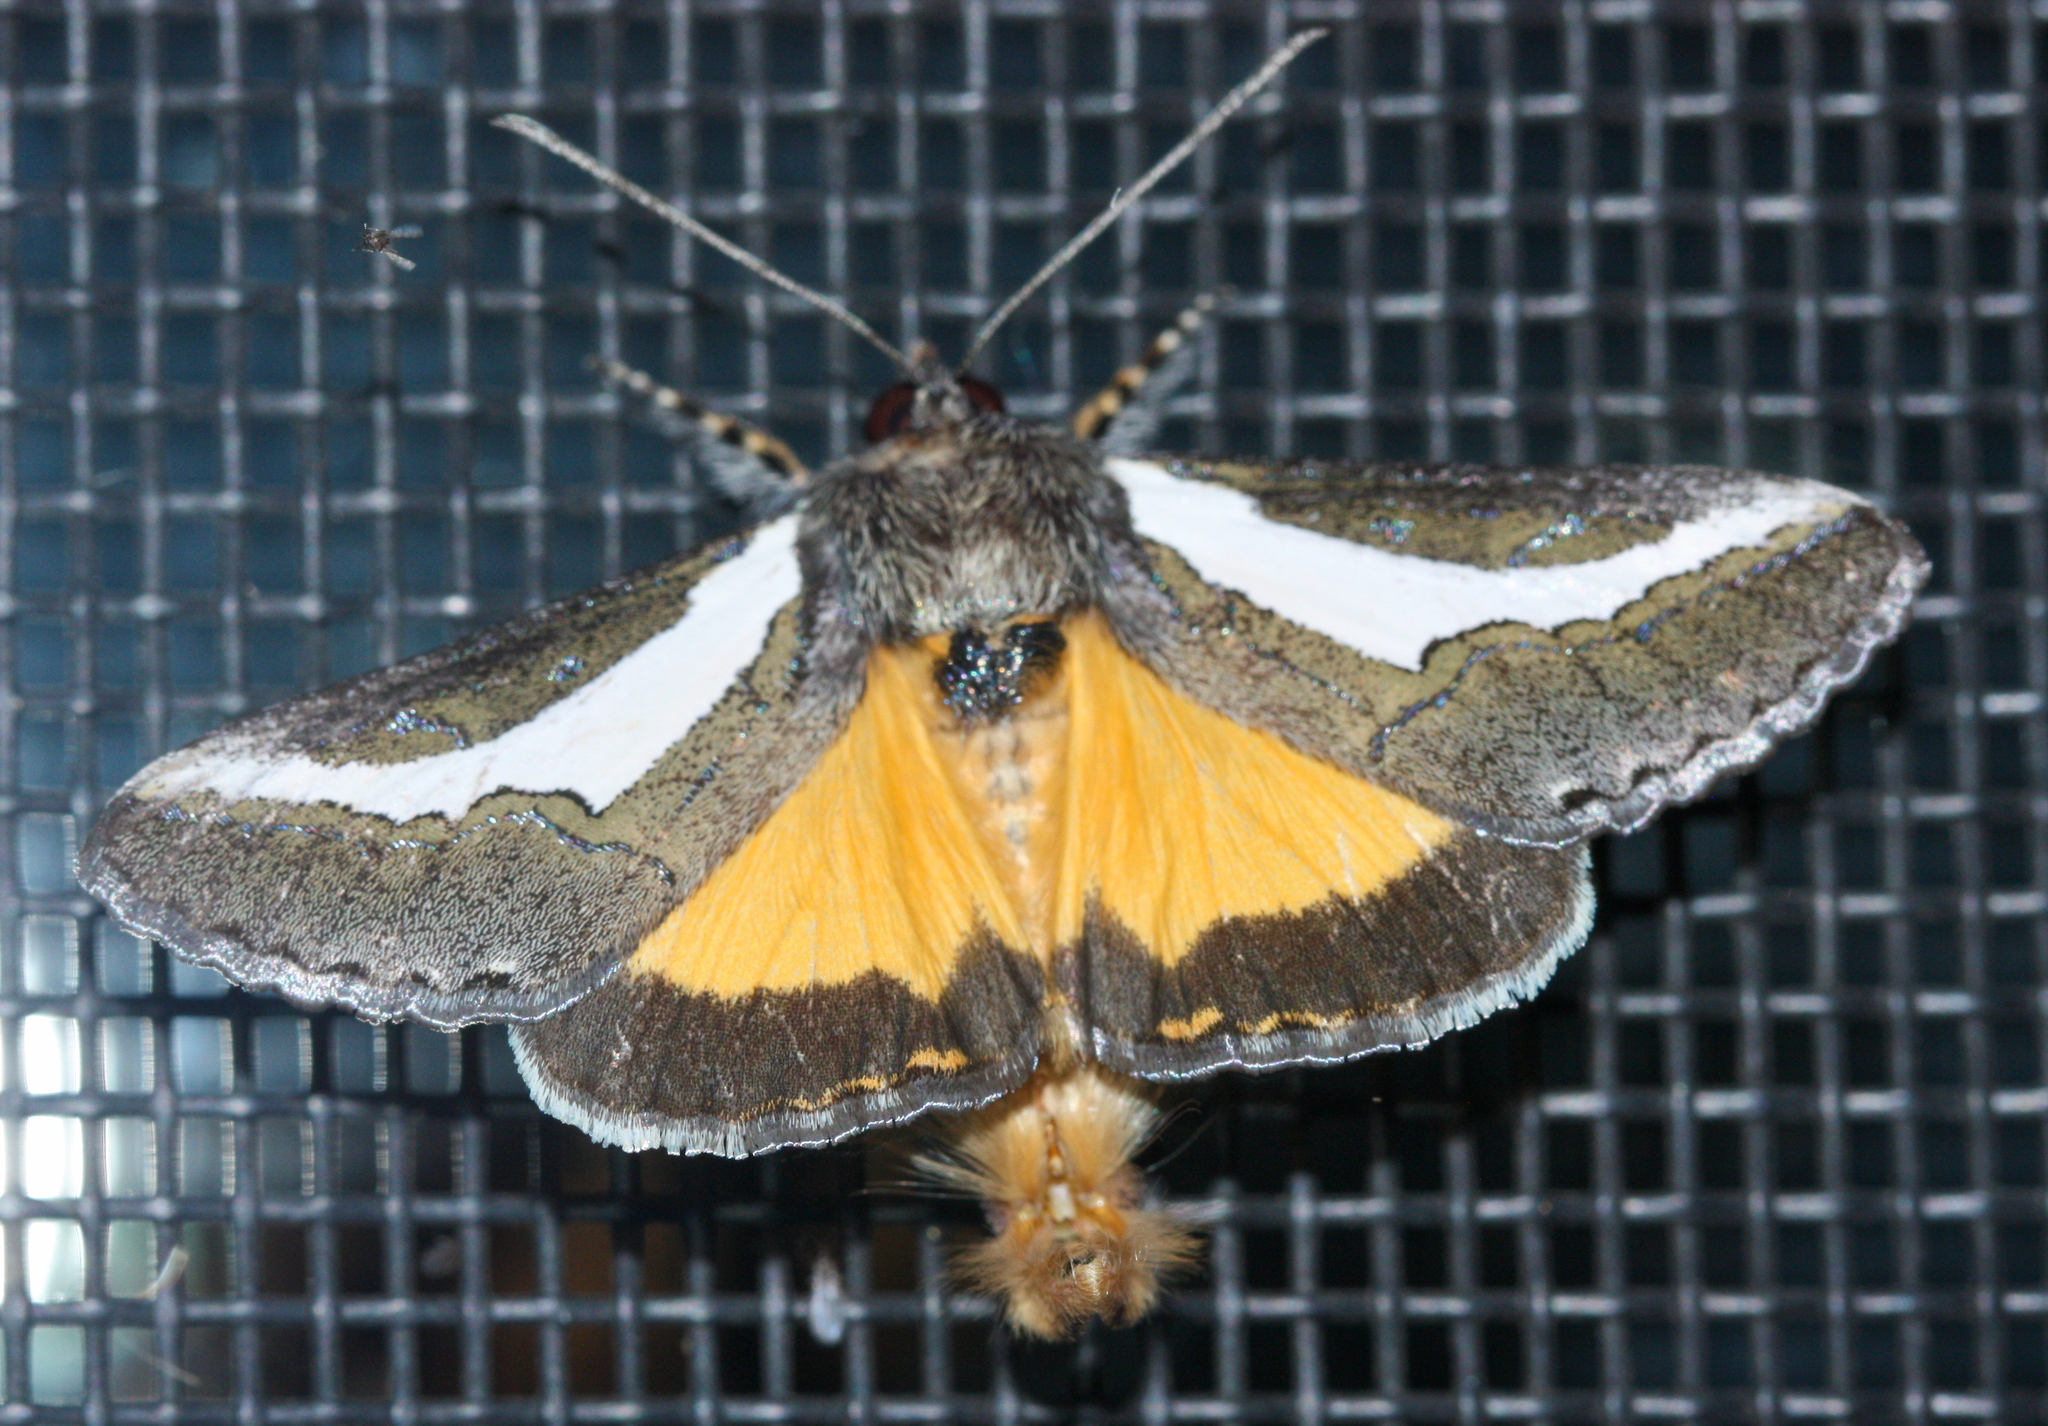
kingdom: Animalia
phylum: Arthropoda
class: Insecta
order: Lepidoptera
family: Noctuidae
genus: Euscirrhopterus
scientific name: Euscirrhopterus cosyra
